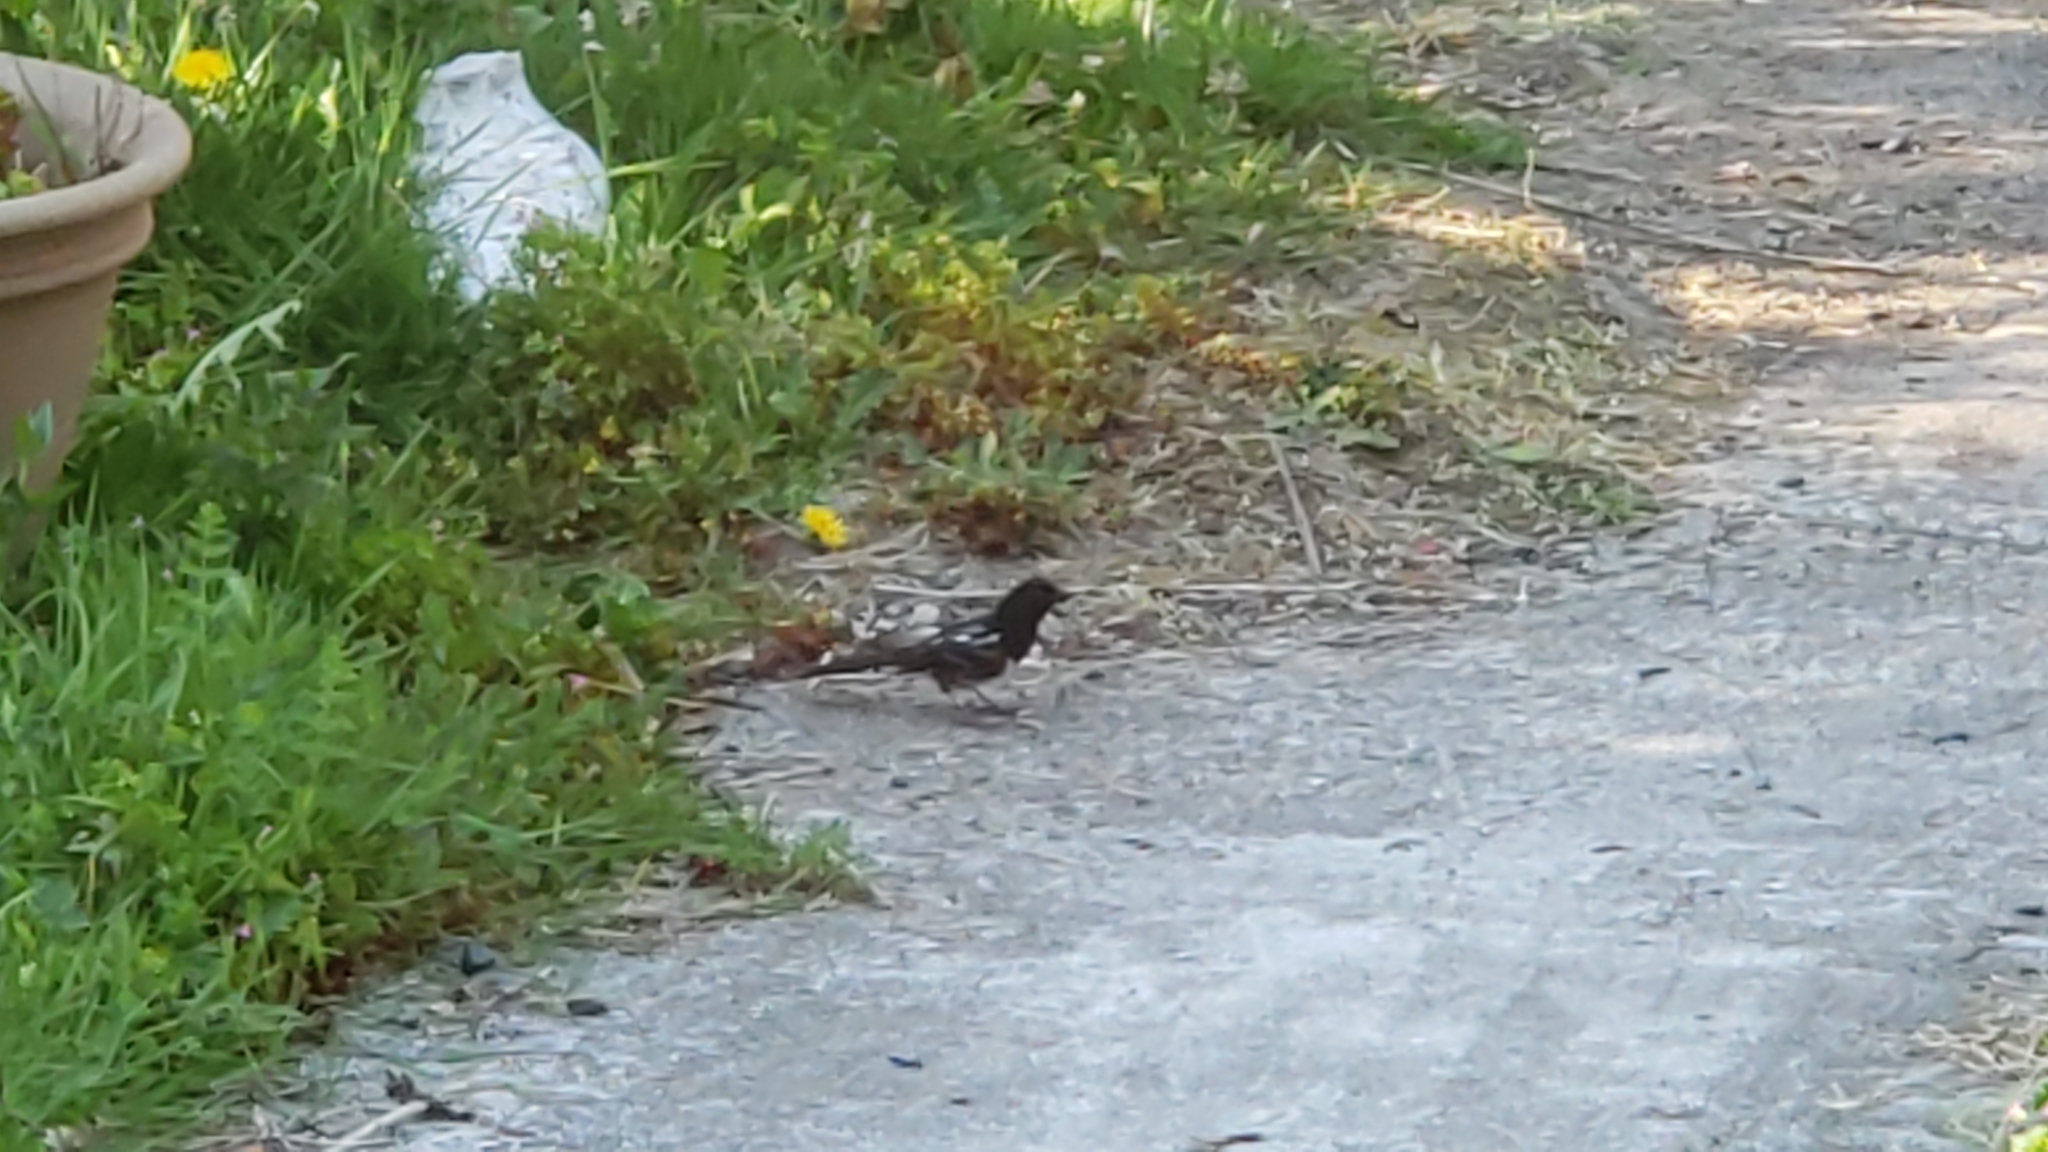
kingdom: Animalia
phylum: Chordata
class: Aves
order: Passeriformes
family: Passerellidae
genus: Pipilo
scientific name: Pipilo maculatus
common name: Spotted towhee
